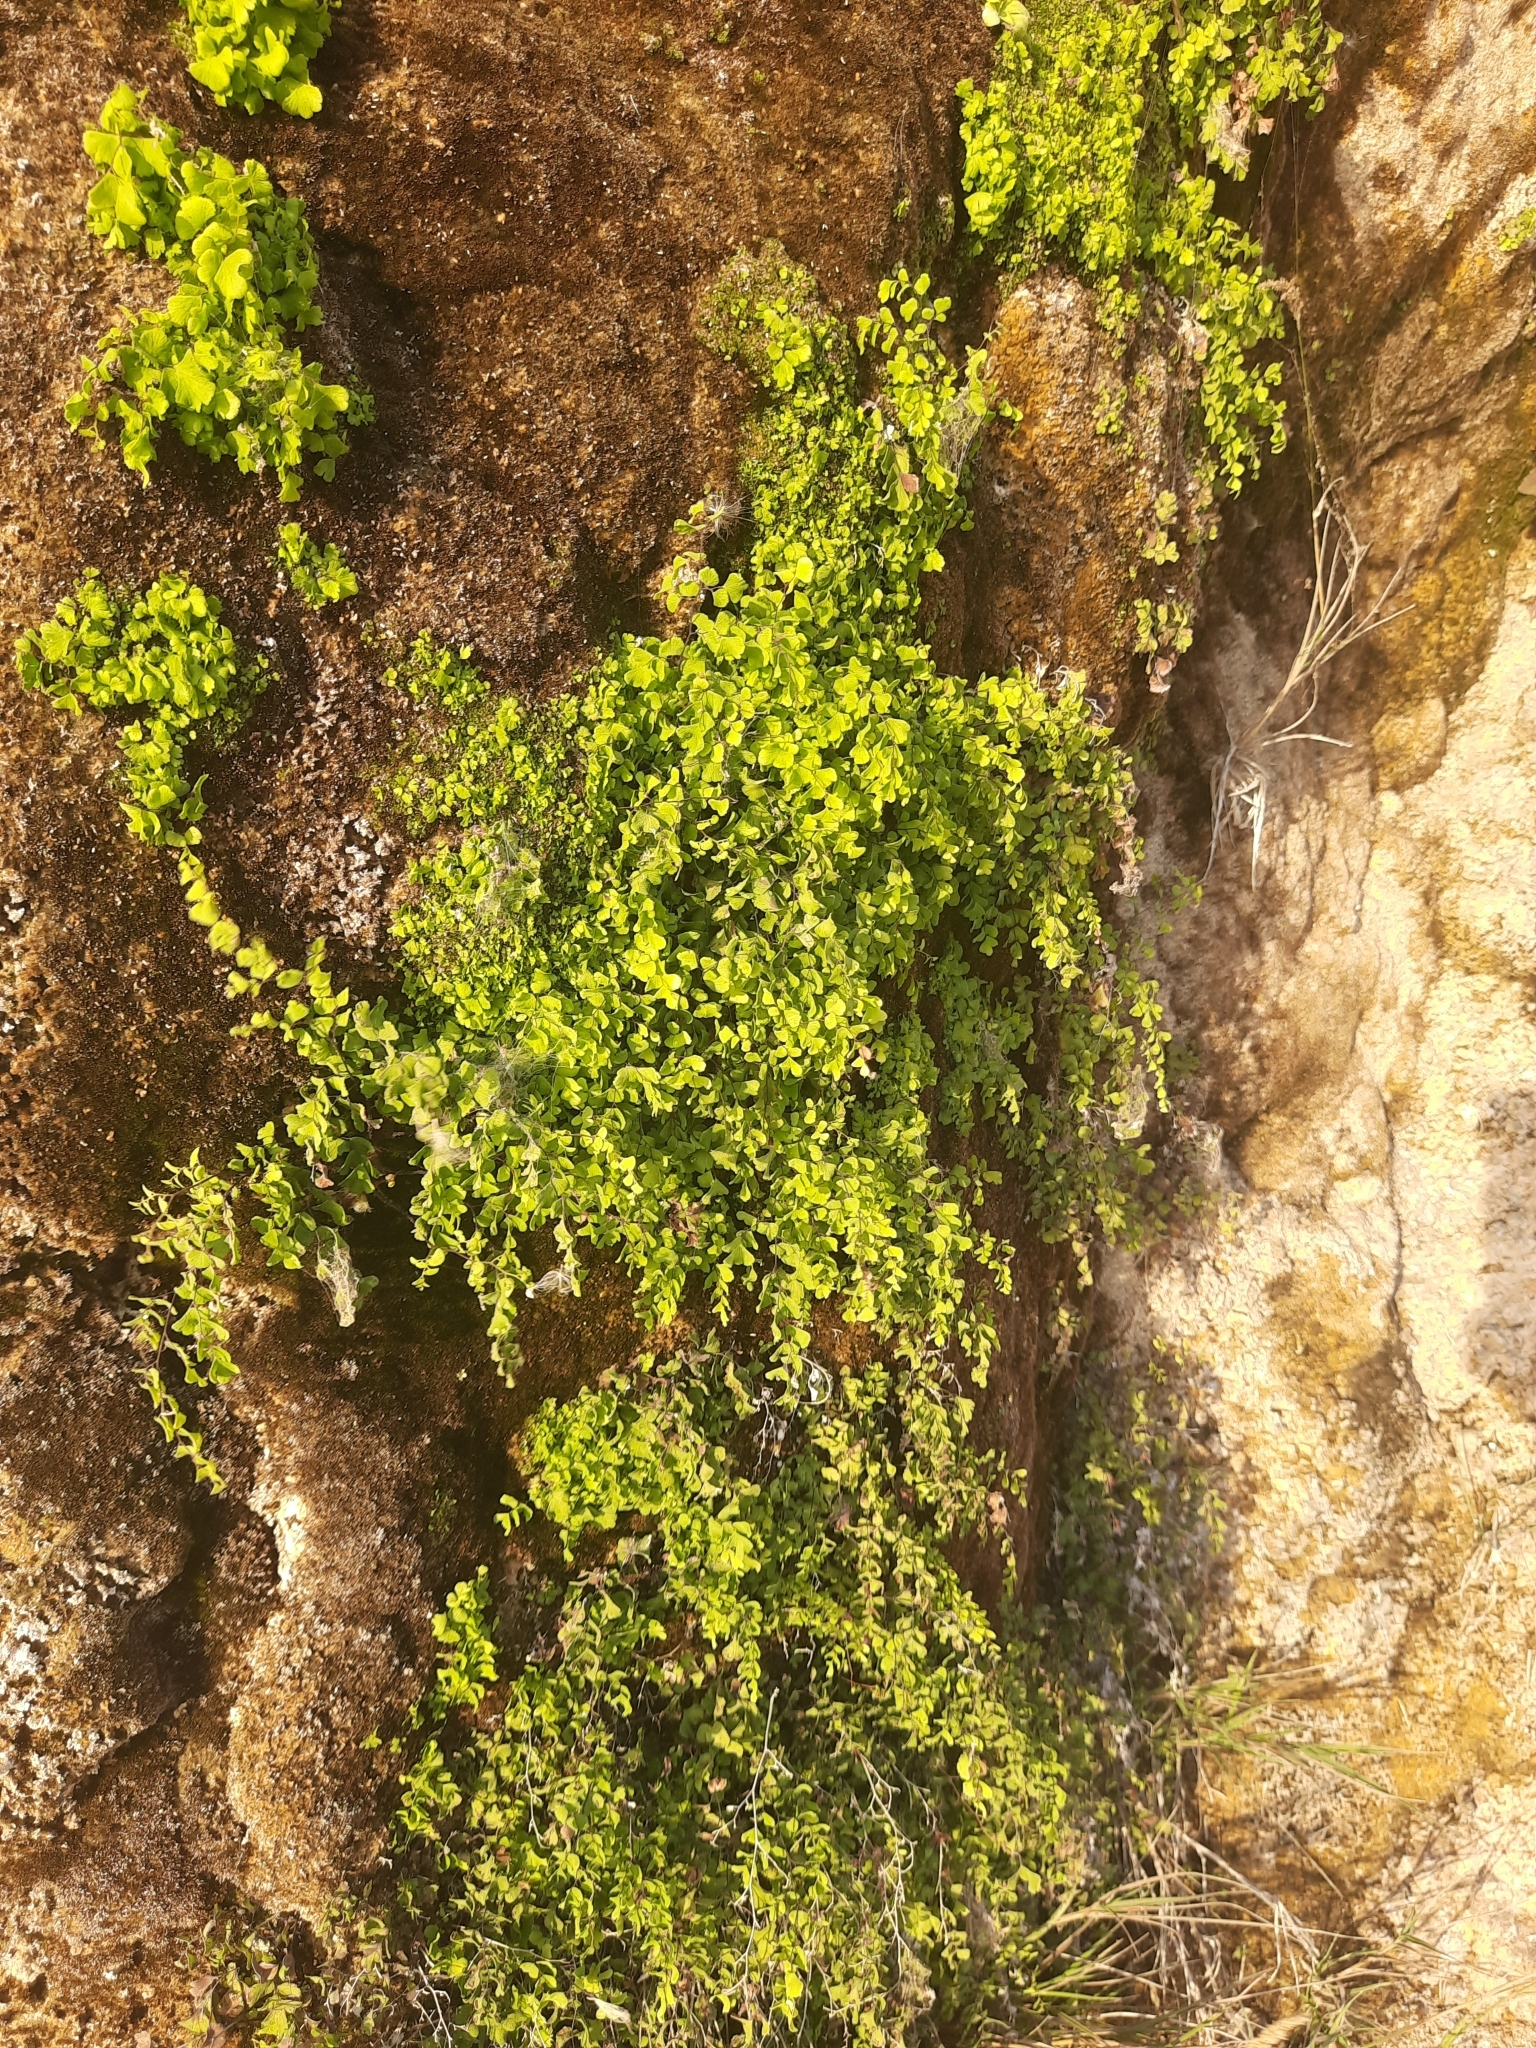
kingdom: Plantae
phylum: Tracheophyta
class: Polypodiopsida
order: Polypodiales
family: Pteridaceae
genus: Adiantum
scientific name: Adiantum capillus-veneris
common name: Maidenhair fern
